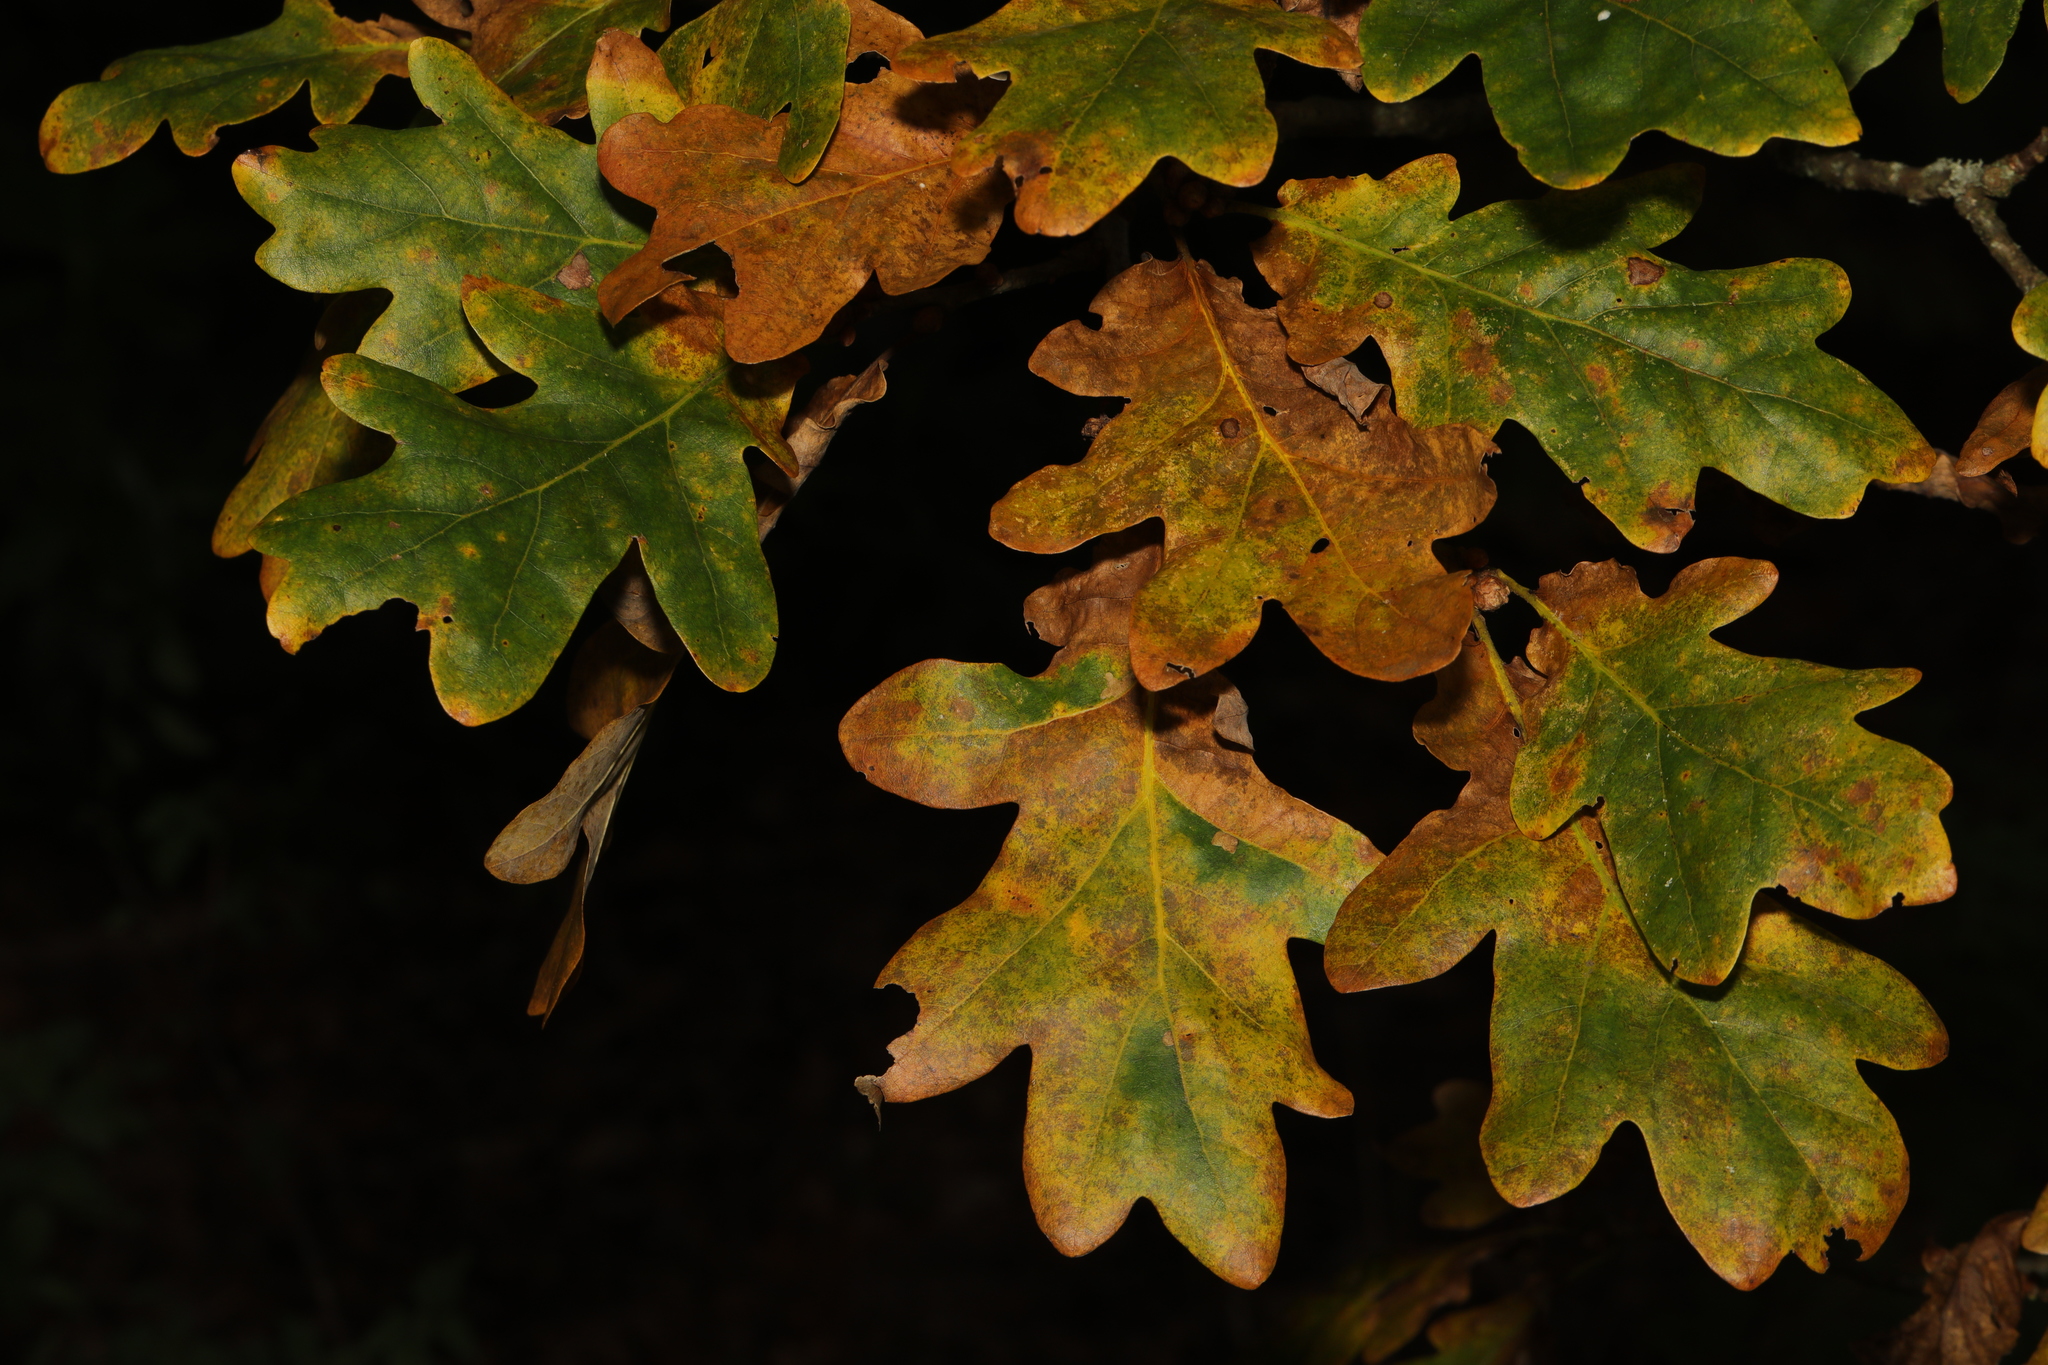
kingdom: Plantae
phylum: Tracheophyta
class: Magnoliopsida
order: Fagales
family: Fagaceae
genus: Quercus
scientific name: Quercus robur
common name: Pedunculate oak
